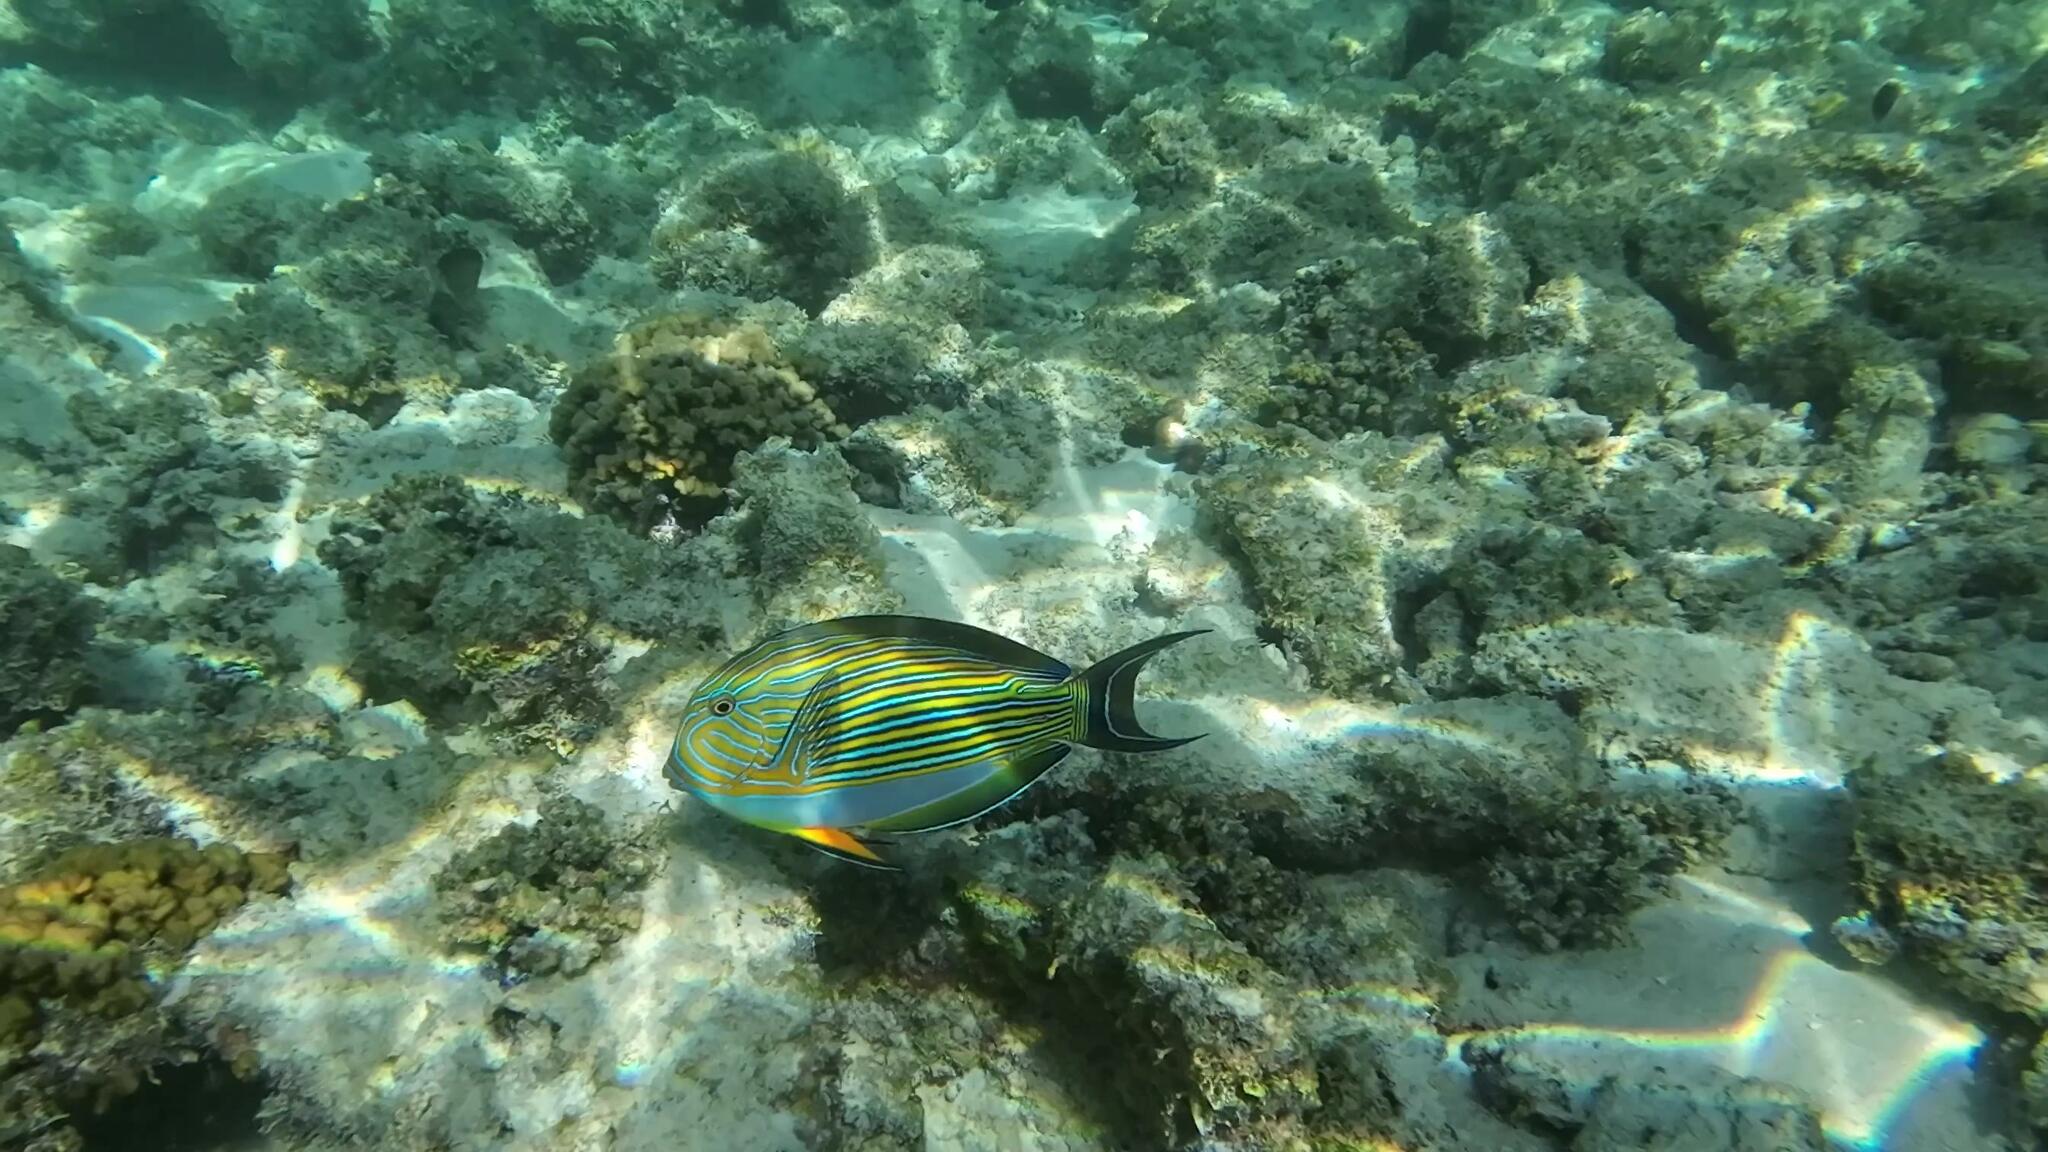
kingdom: Animalia
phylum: Chordata
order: Perciformes
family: Acanthuridae
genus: Acanthurus
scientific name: Acanthurus lineatus
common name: Striped surgeonfish
